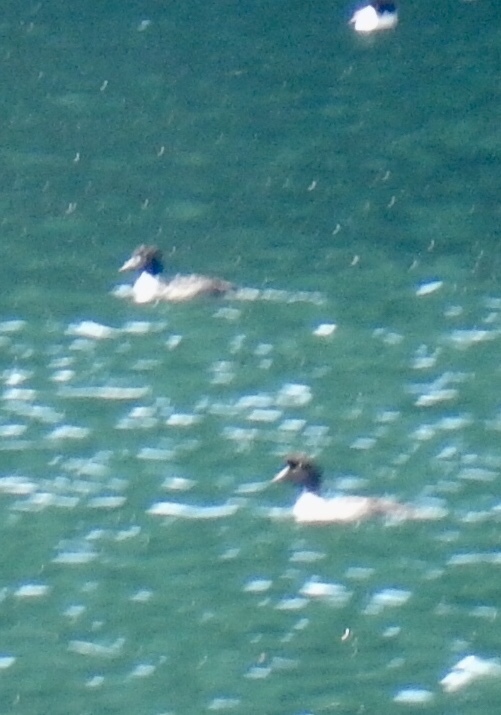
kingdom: Animalia
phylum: Chordata
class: Aves
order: Anseriformes
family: Anatidae
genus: Bucephala
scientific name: Bucephala islandica
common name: Barrow's goldeneye
